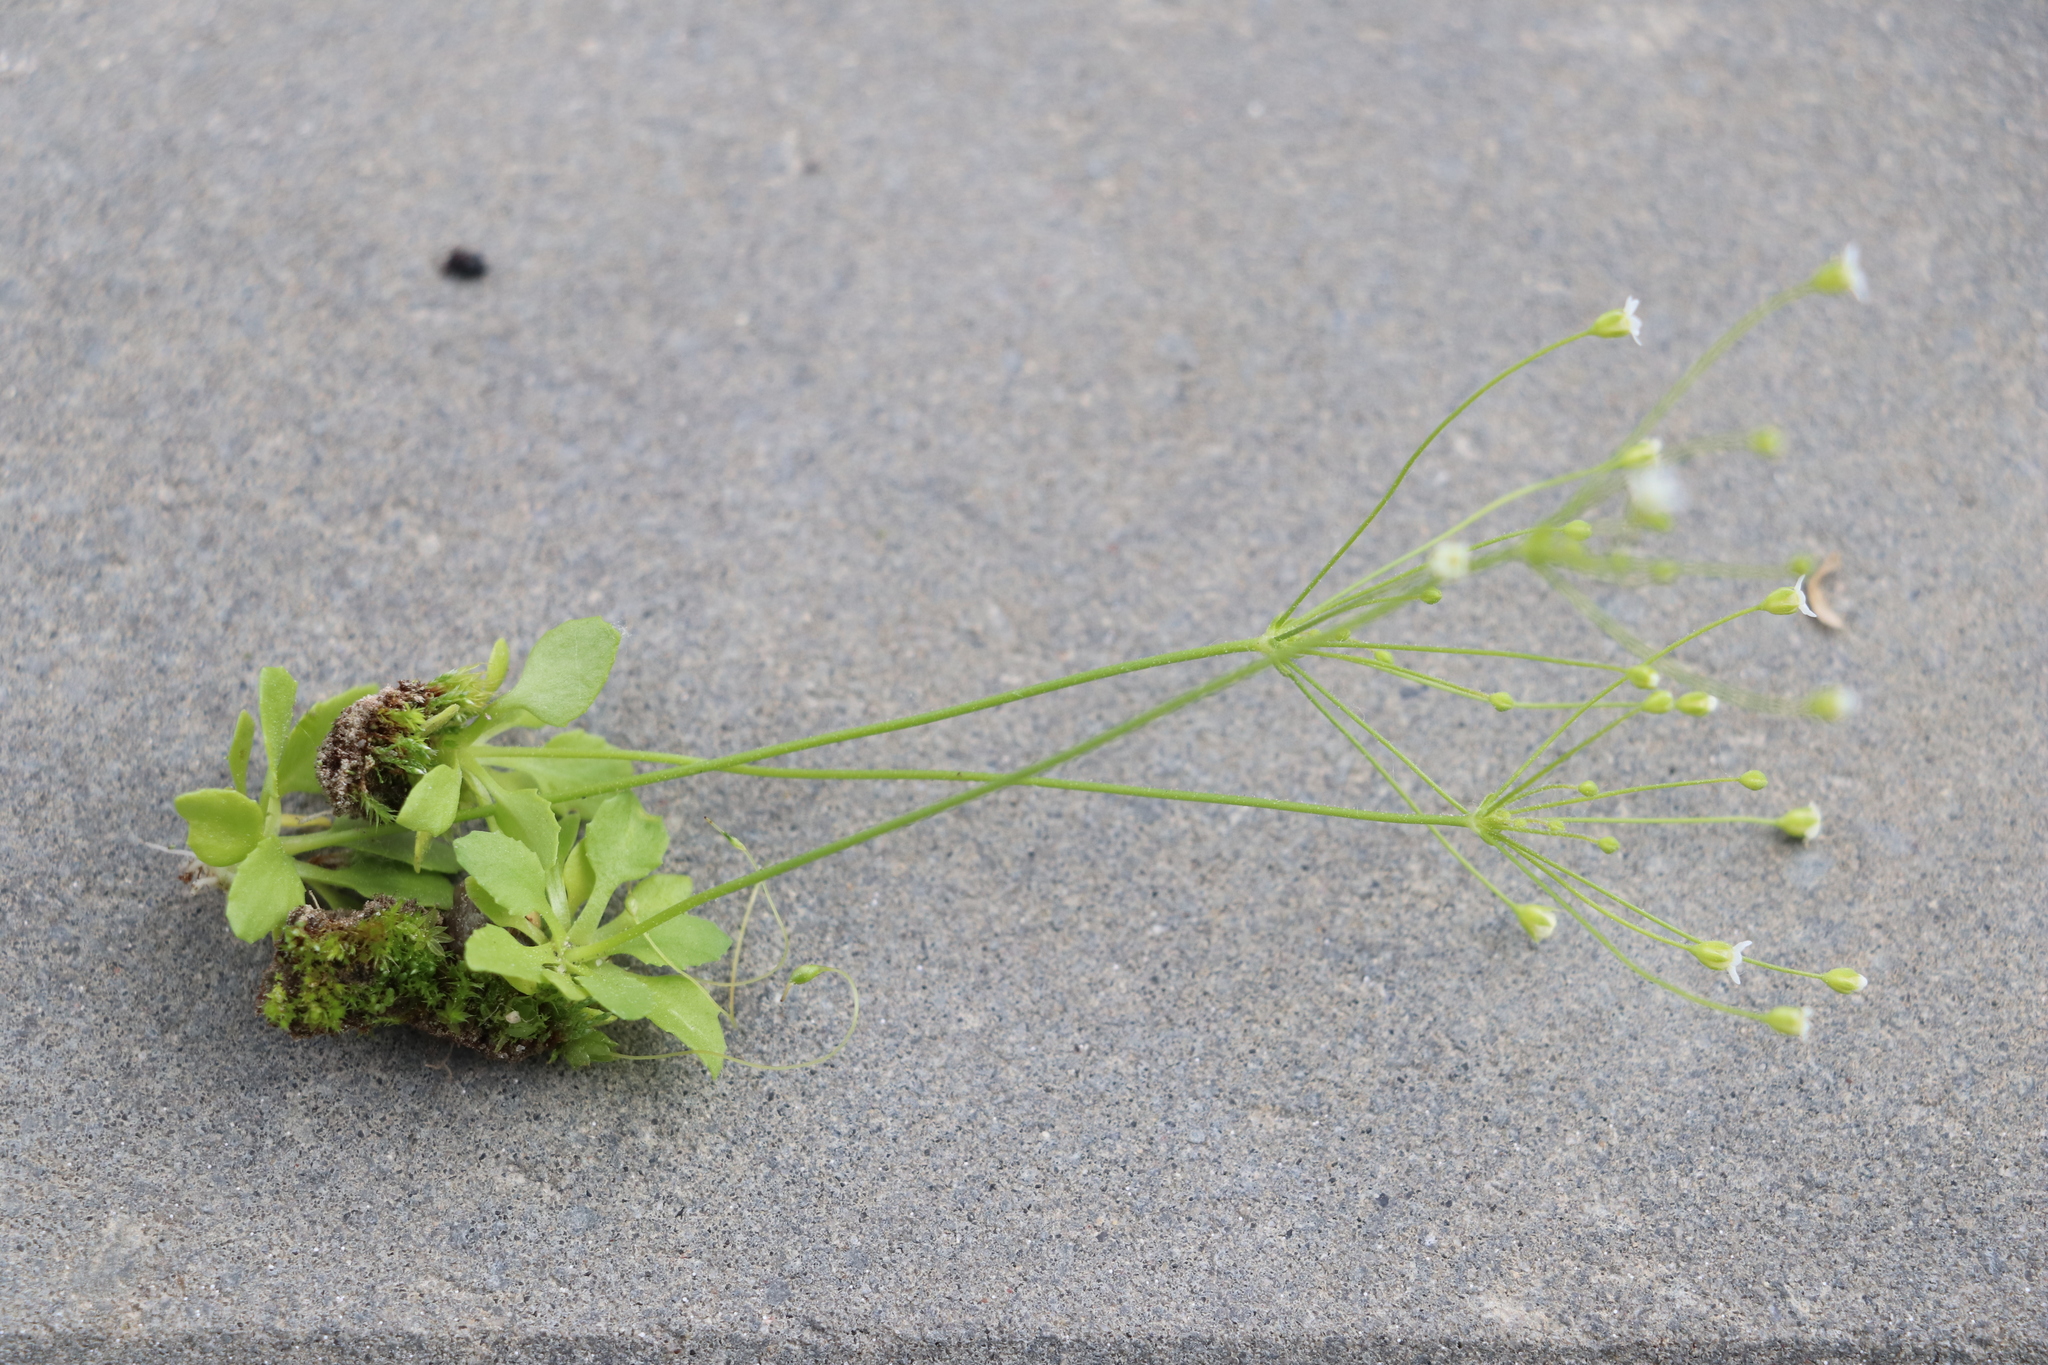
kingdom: Plantae
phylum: Tracheophyta
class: Magnoliopsida
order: Ericales
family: Primulaceae
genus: Androsace
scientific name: Androsace filiformis
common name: Filiform rock jasmine
